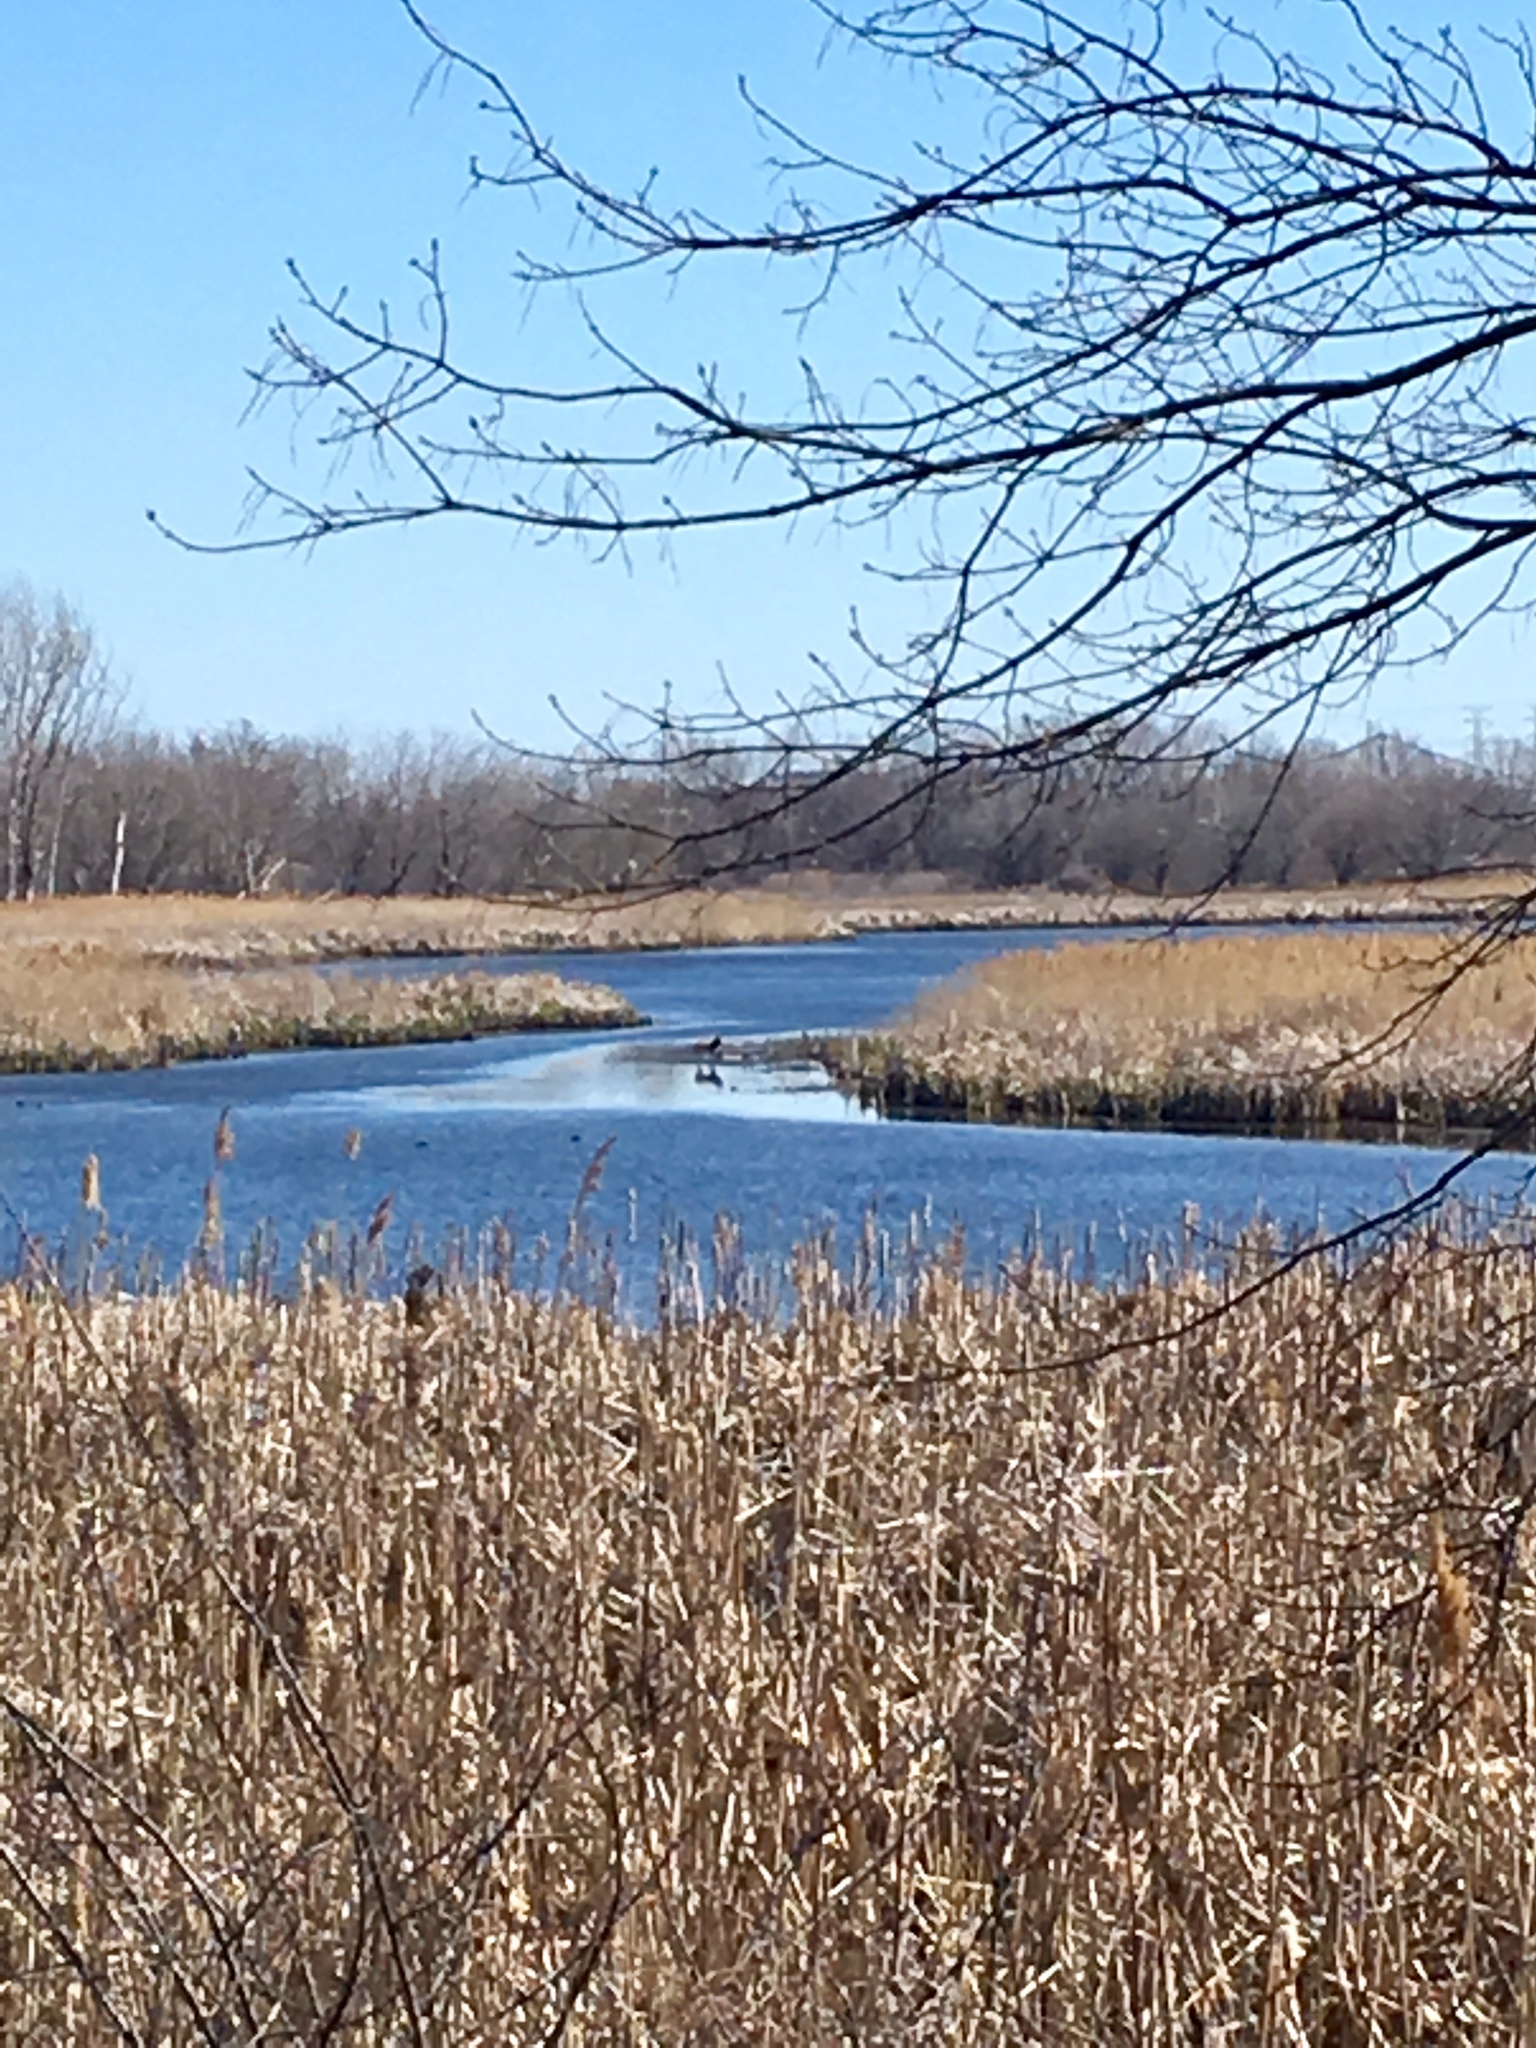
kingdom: Animalia
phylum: Chordata
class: Mammalia
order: Carnivora
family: Canidae
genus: Canis
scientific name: Canis latrans
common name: Coyote
